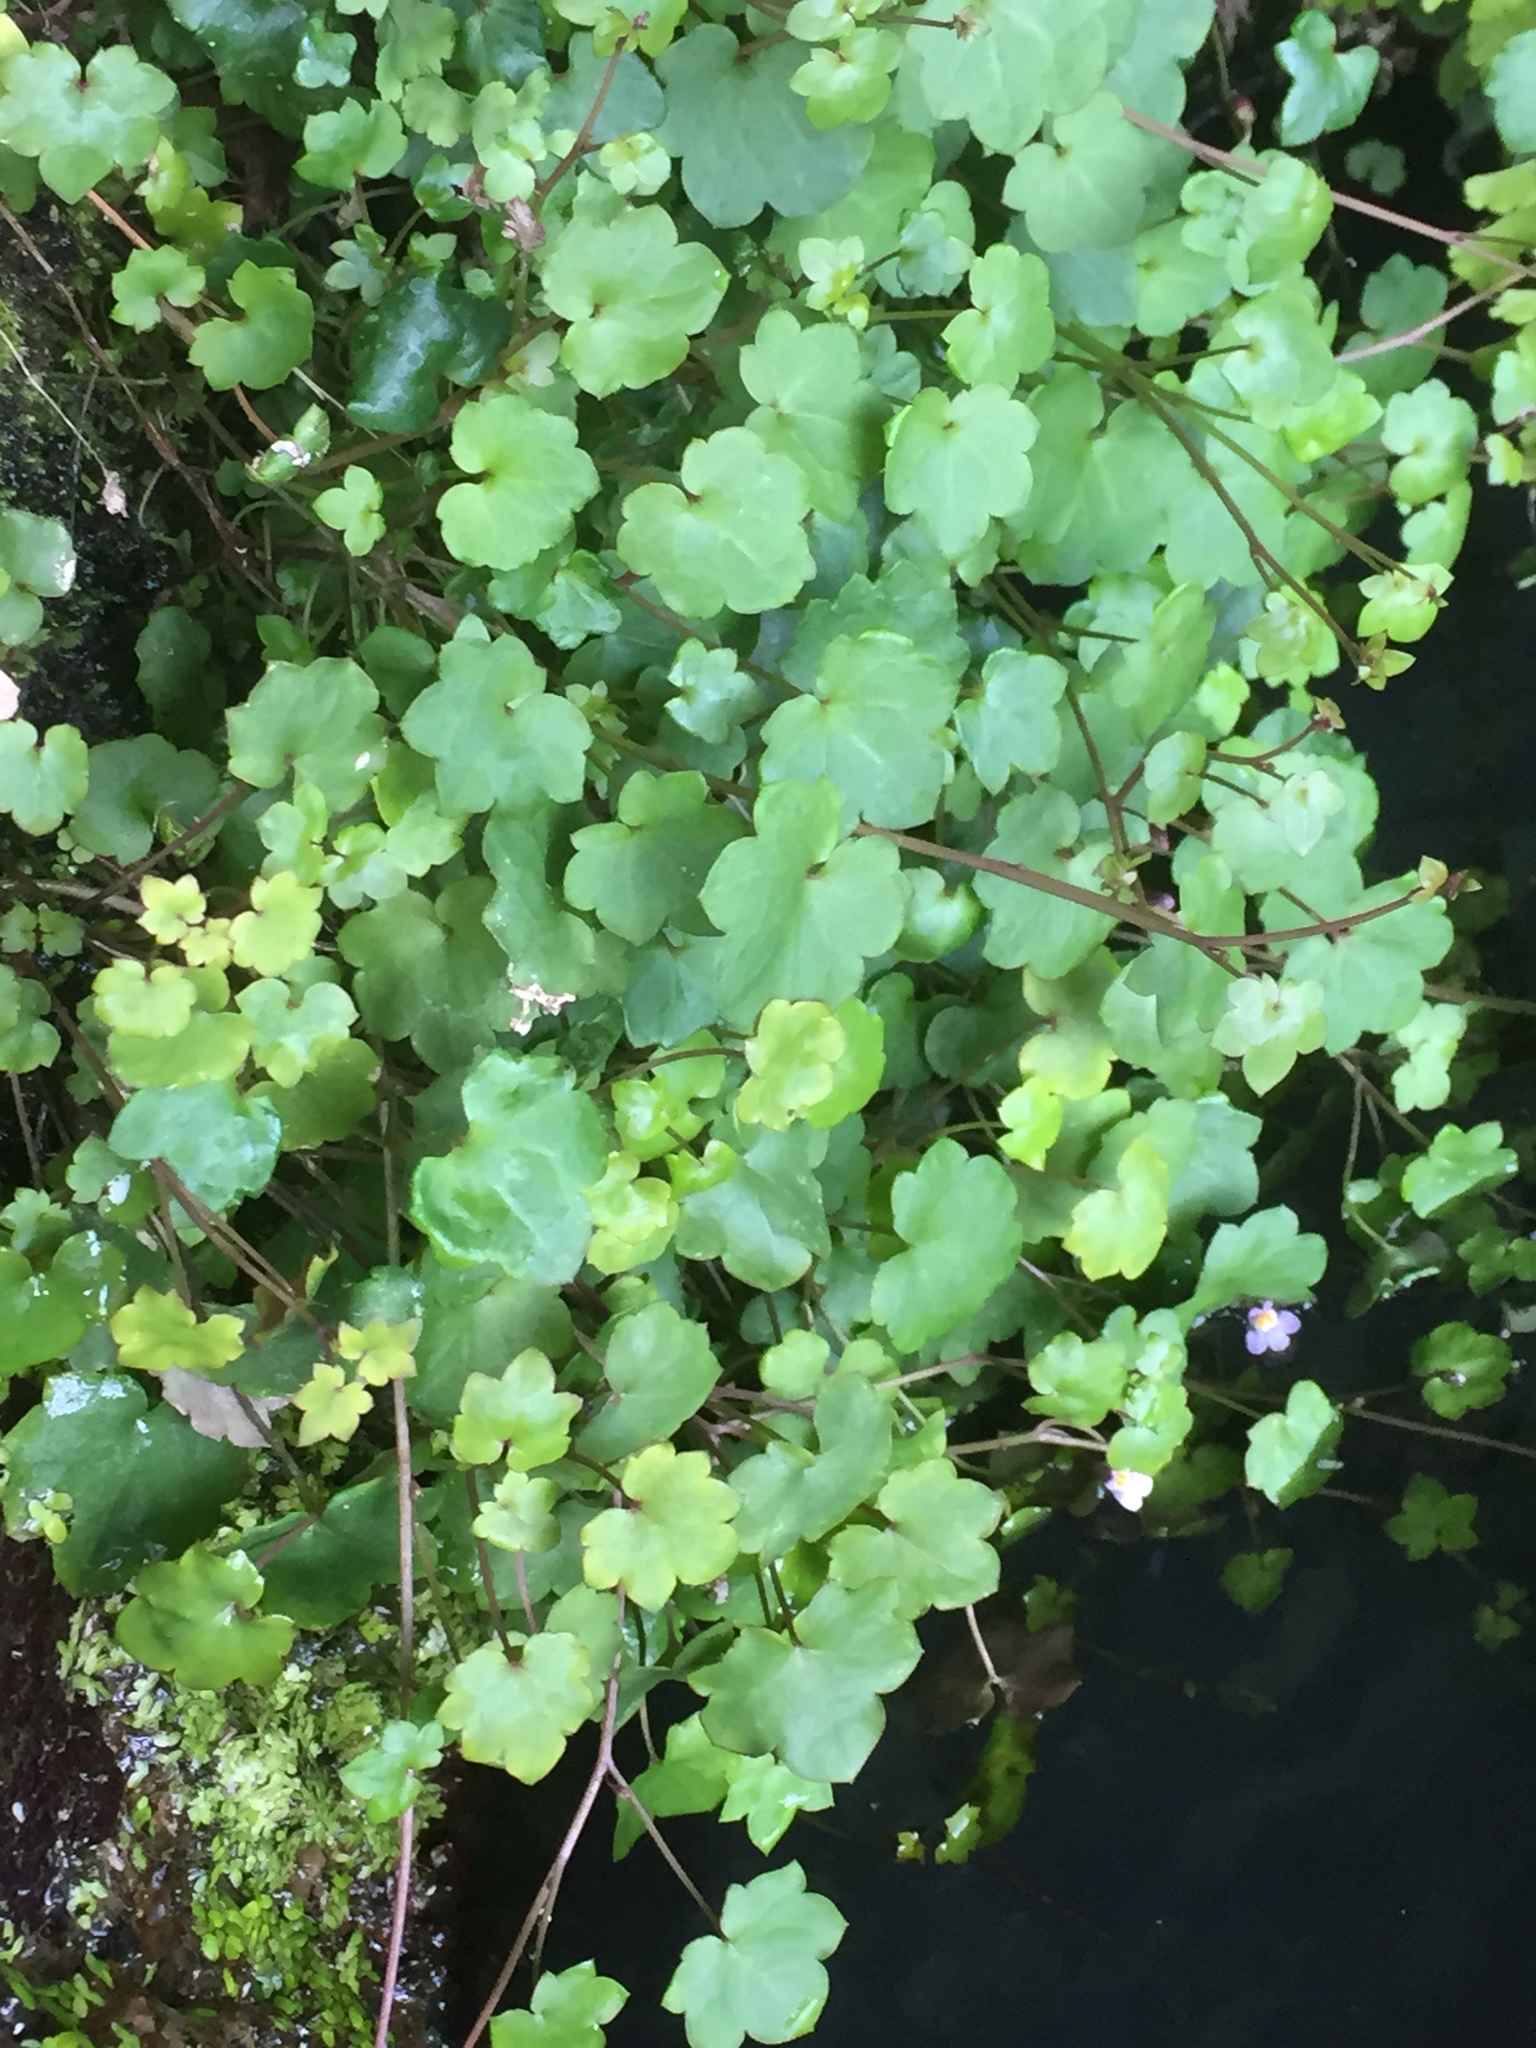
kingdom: Plantae
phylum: Tracheophyta
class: Magnoliopsida
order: Lamiales
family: Plantaginaceae
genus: Cymbalaria
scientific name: Cymbalaria muralis
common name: Ivy-leaved toadflax
